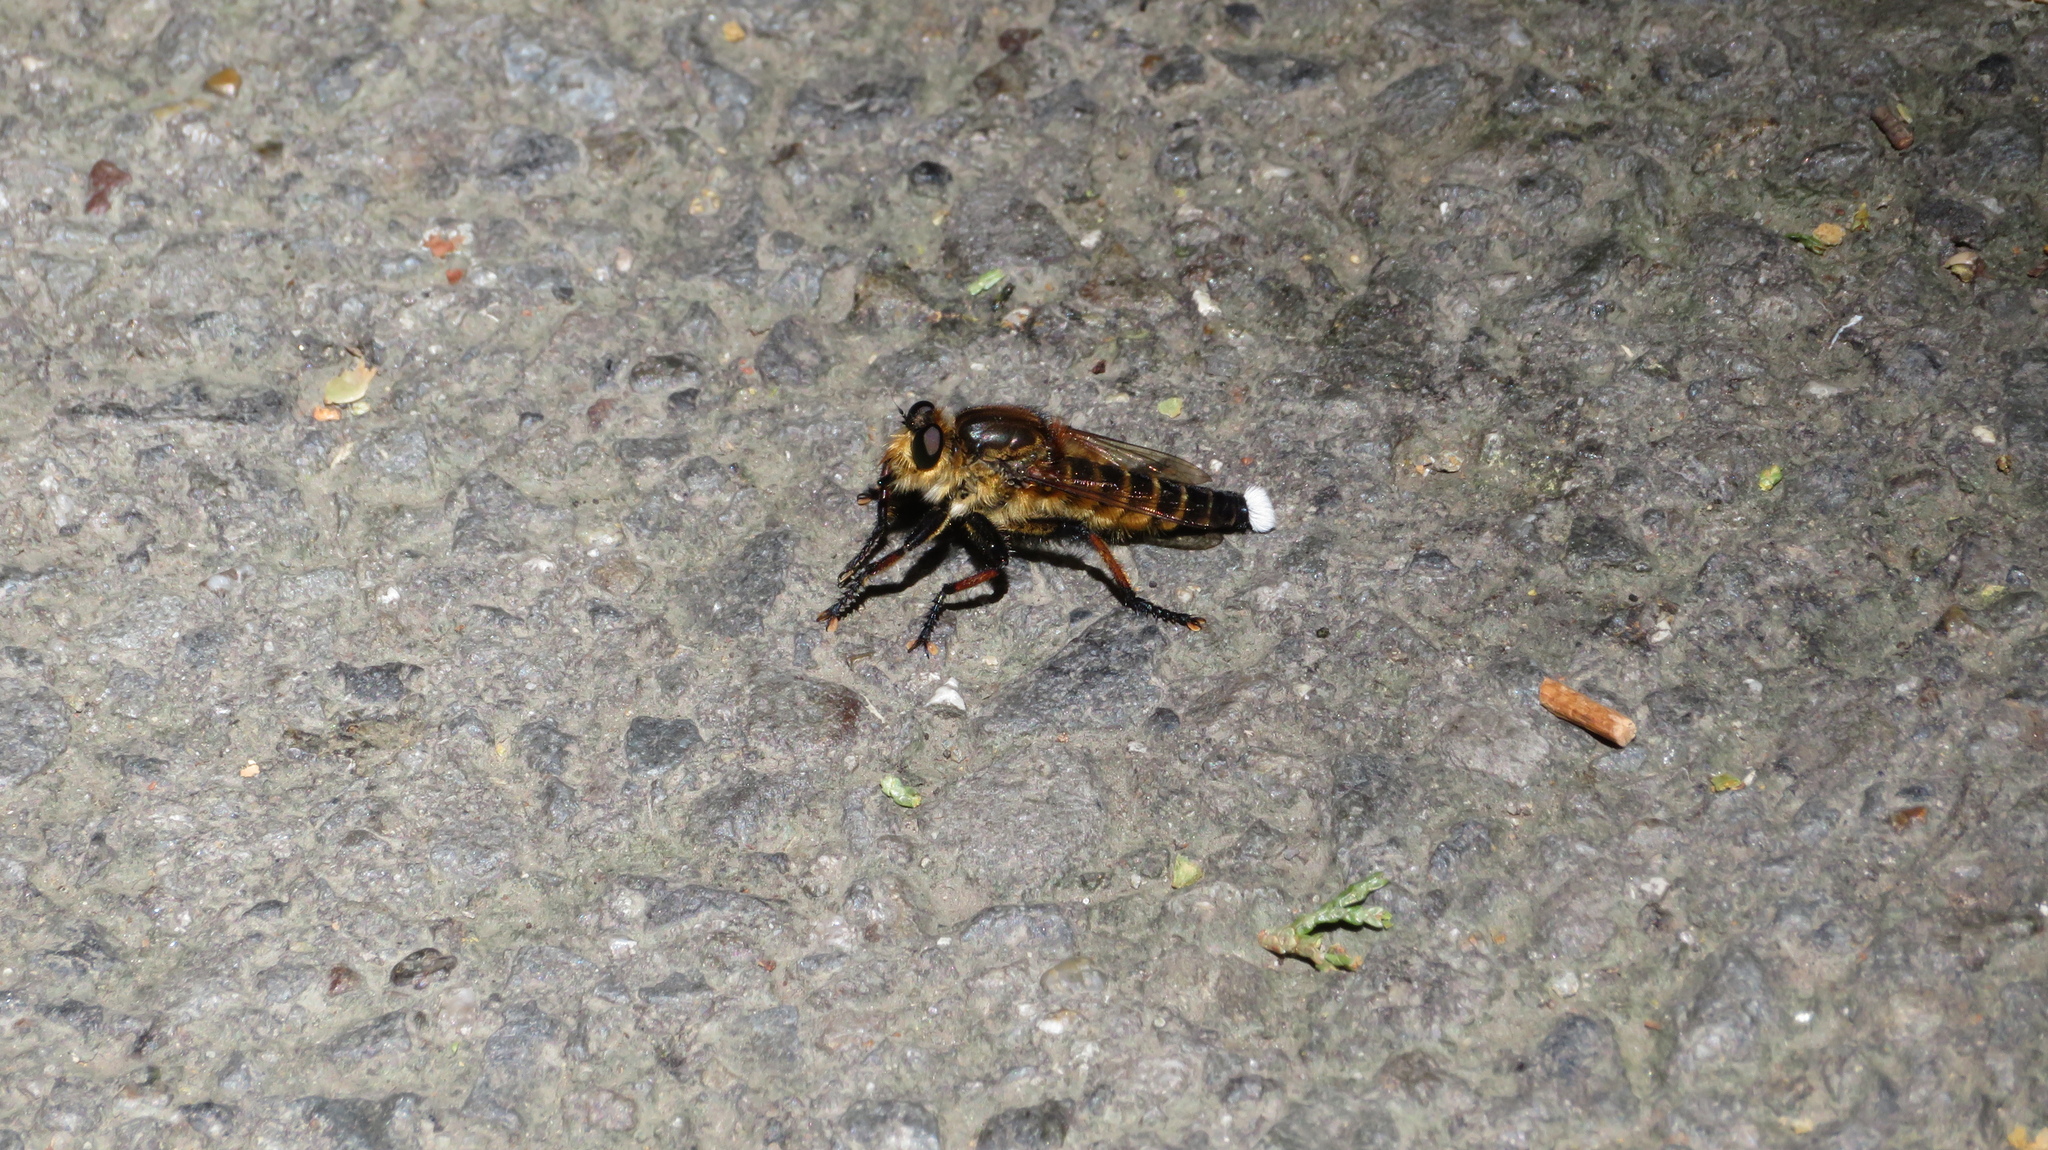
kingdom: Animalia
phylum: Arthropoda
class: Insecta
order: Diptera
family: Asilidae
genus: Promachus
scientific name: Promachus yesonicus
